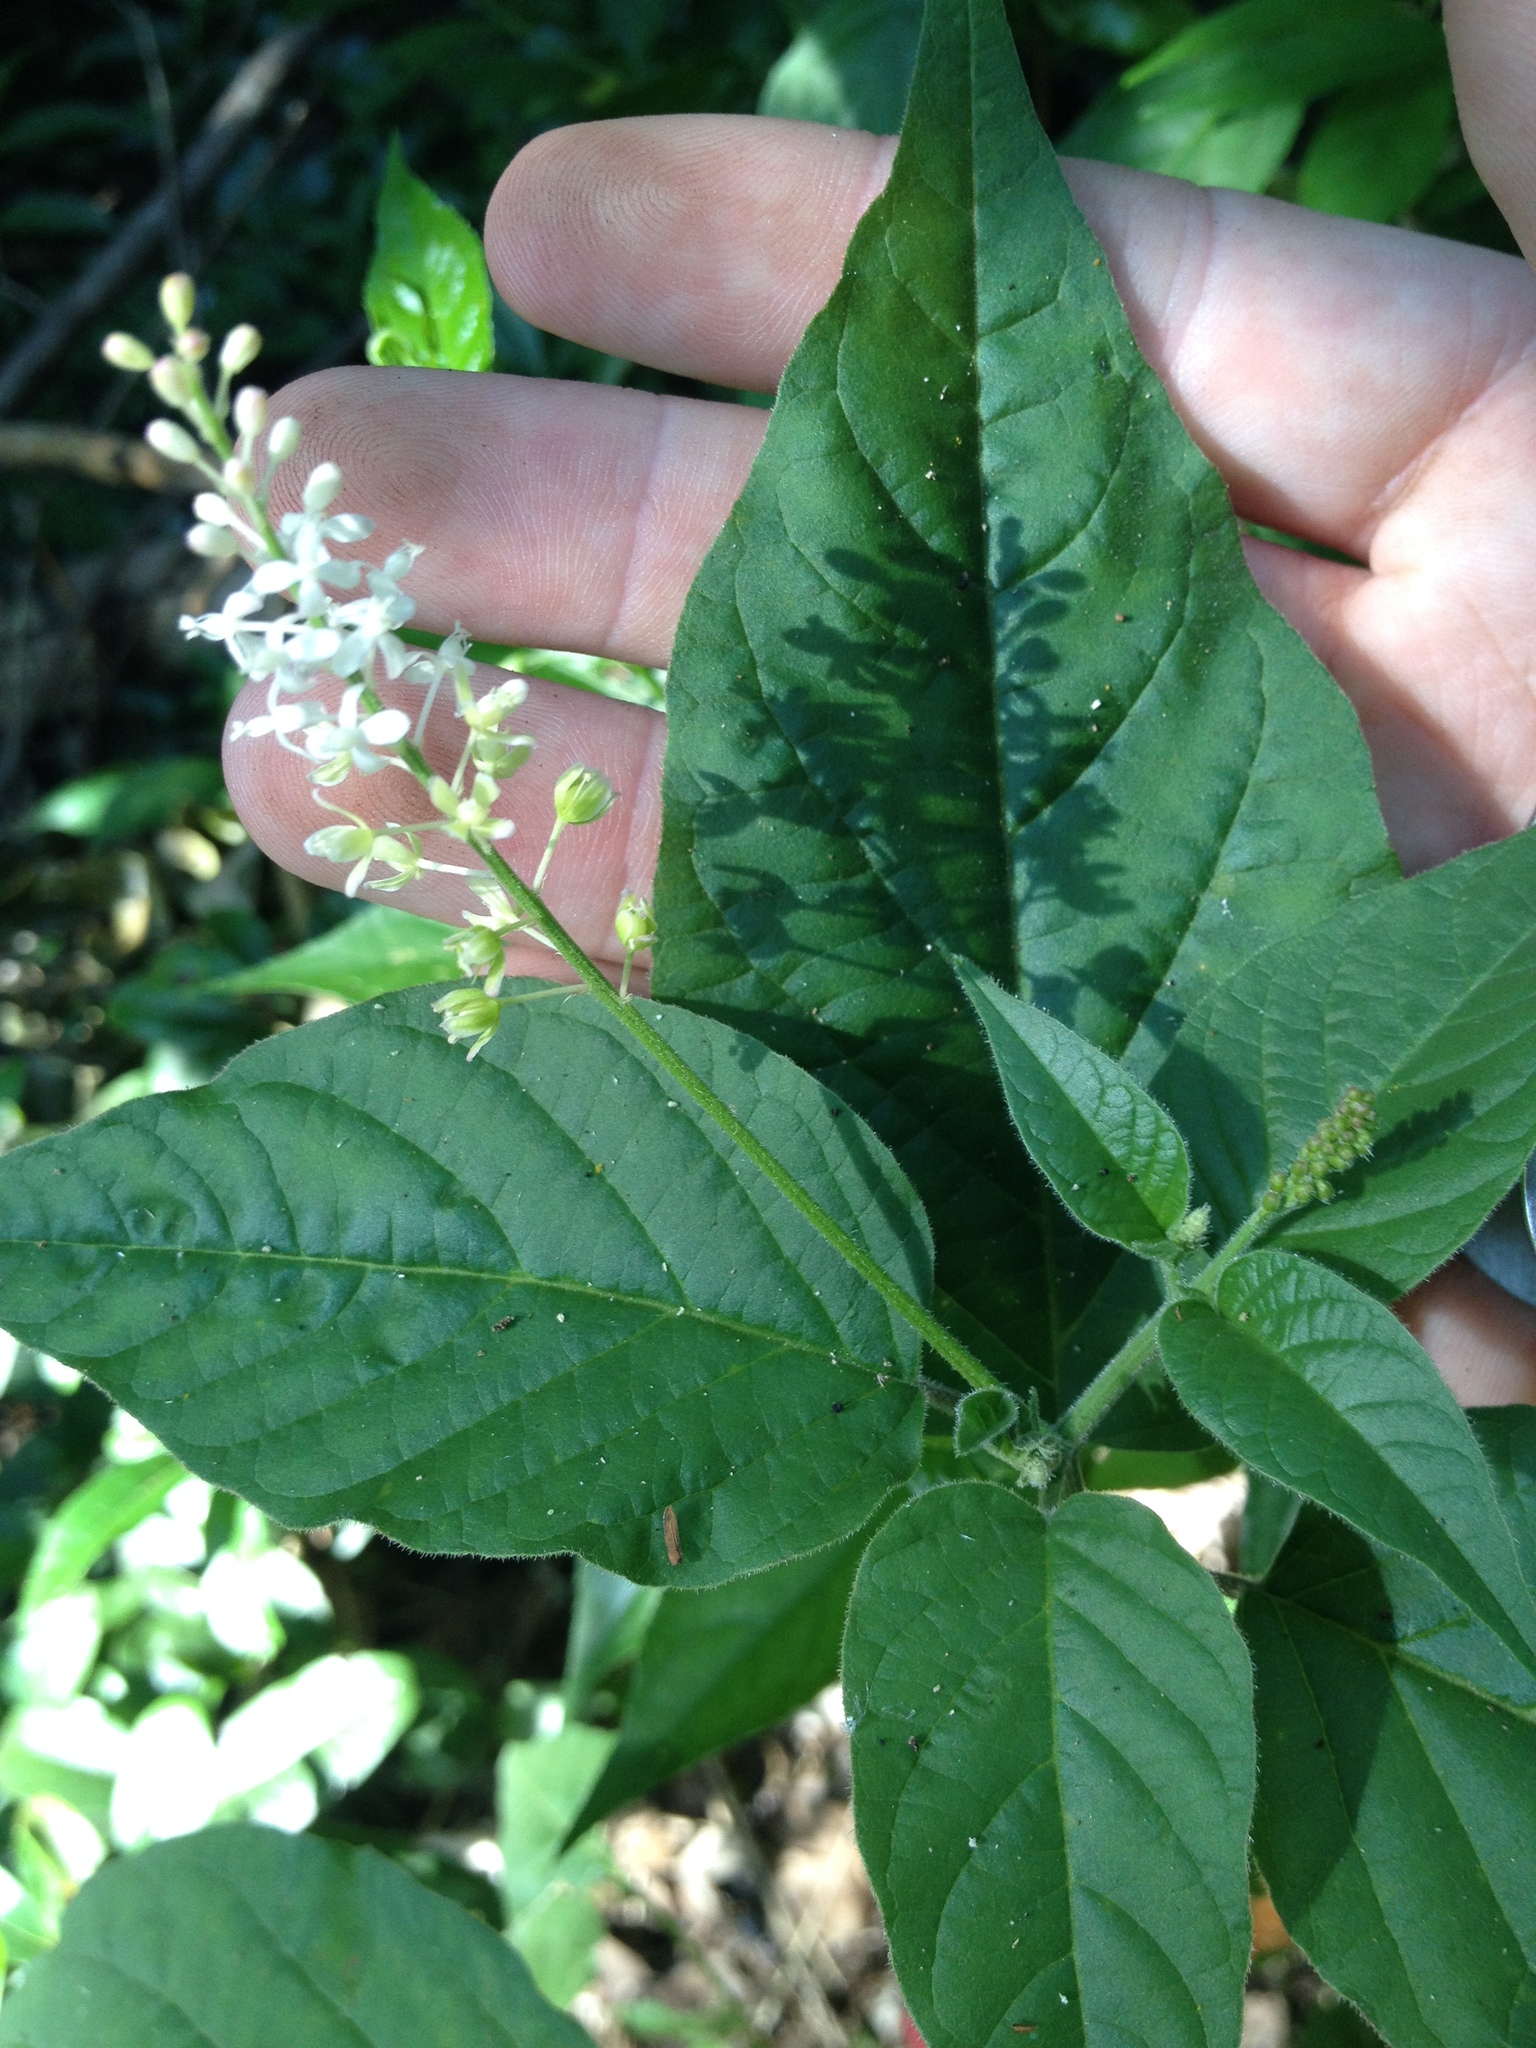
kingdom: Plantae
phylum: Tracheophyta
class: Magnoliopsida
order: Caryophyllales
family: Phytolaccaceae
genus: Rivina
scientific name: Rivina humilis
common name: Rougeplant
